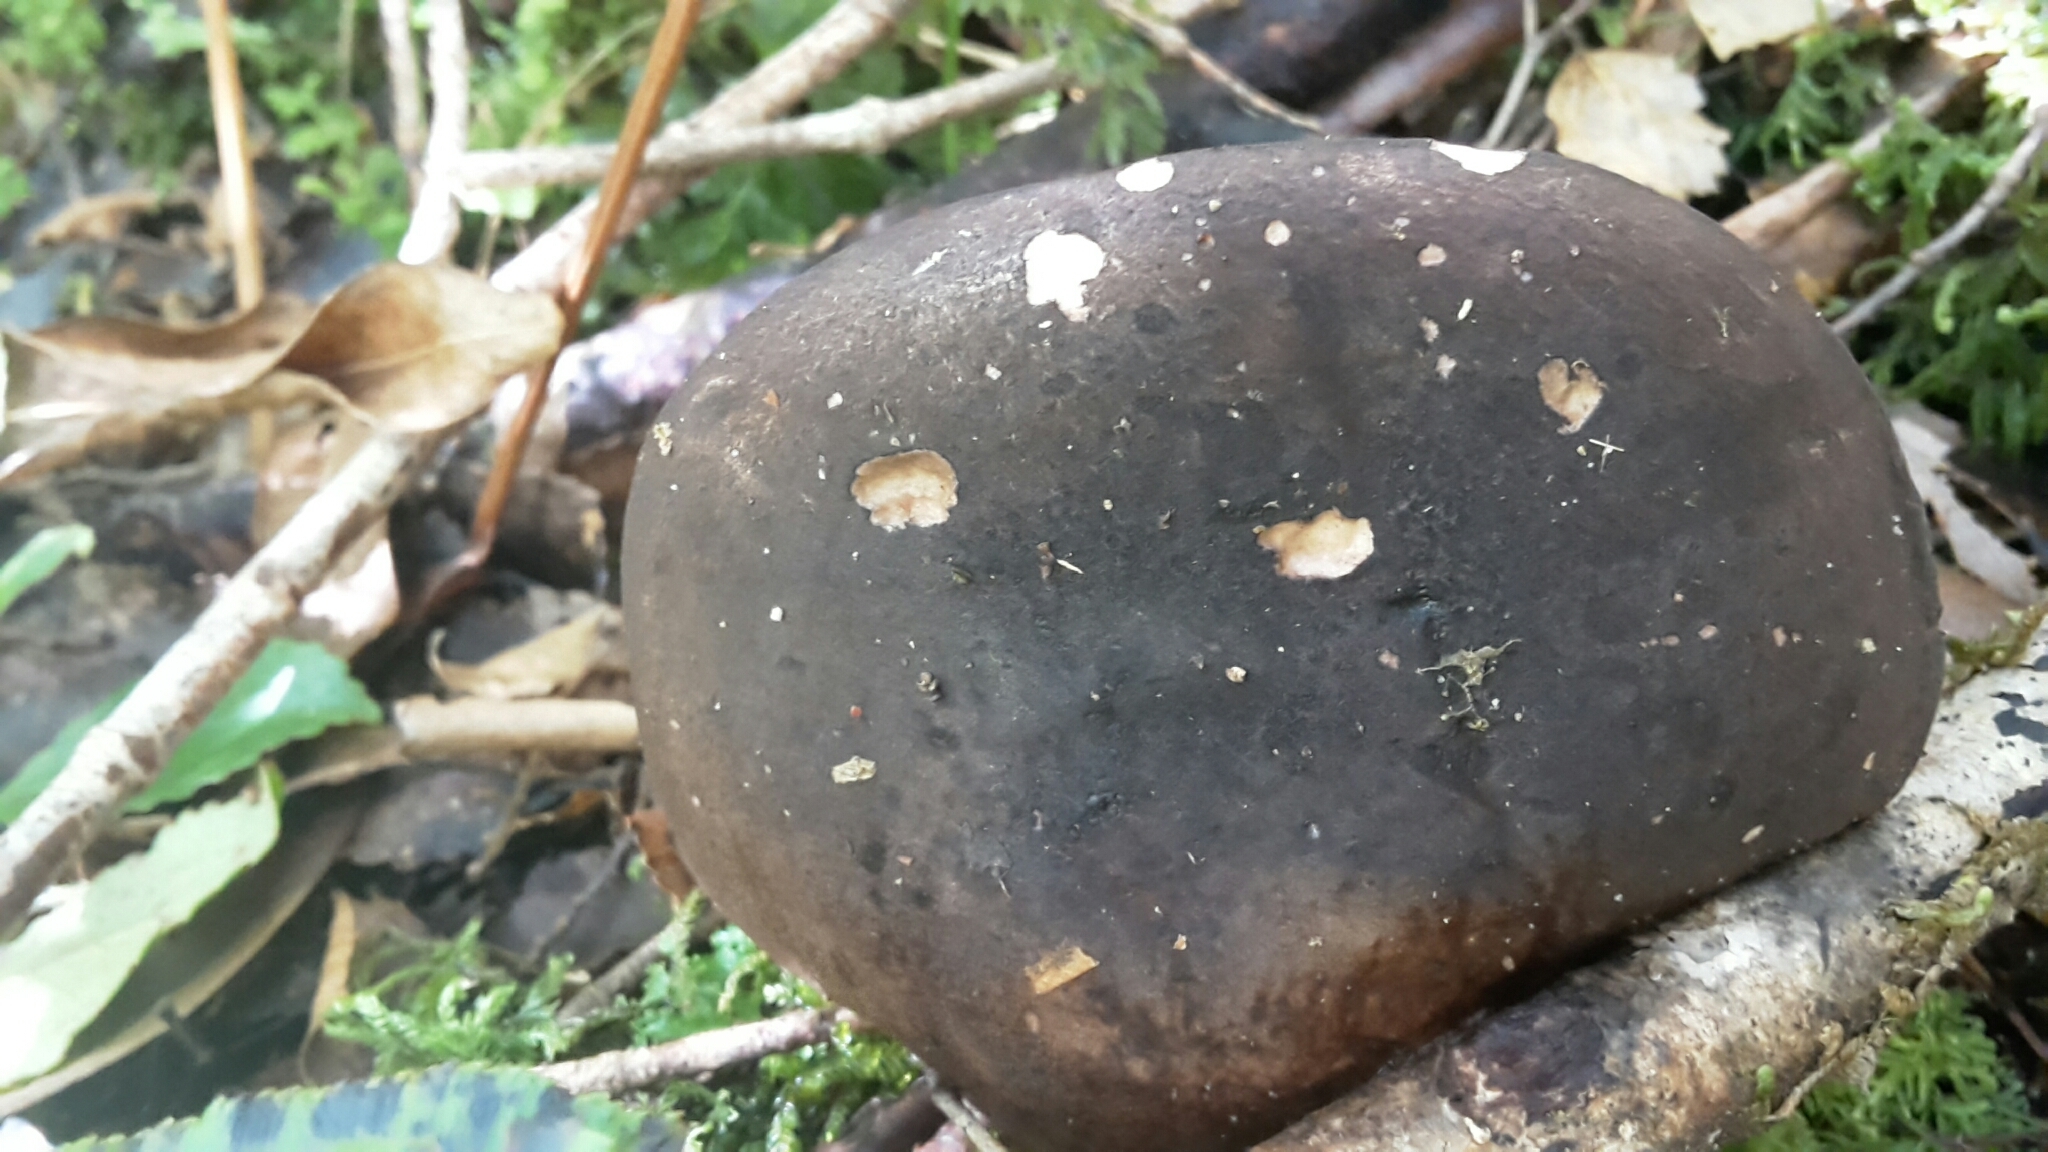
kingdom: Fungi
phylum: Basidiomycota
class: Agaricomycetes
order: Boletales
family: Boletaceae
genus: Porphyrellus
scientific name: Porphyrellus formosus
